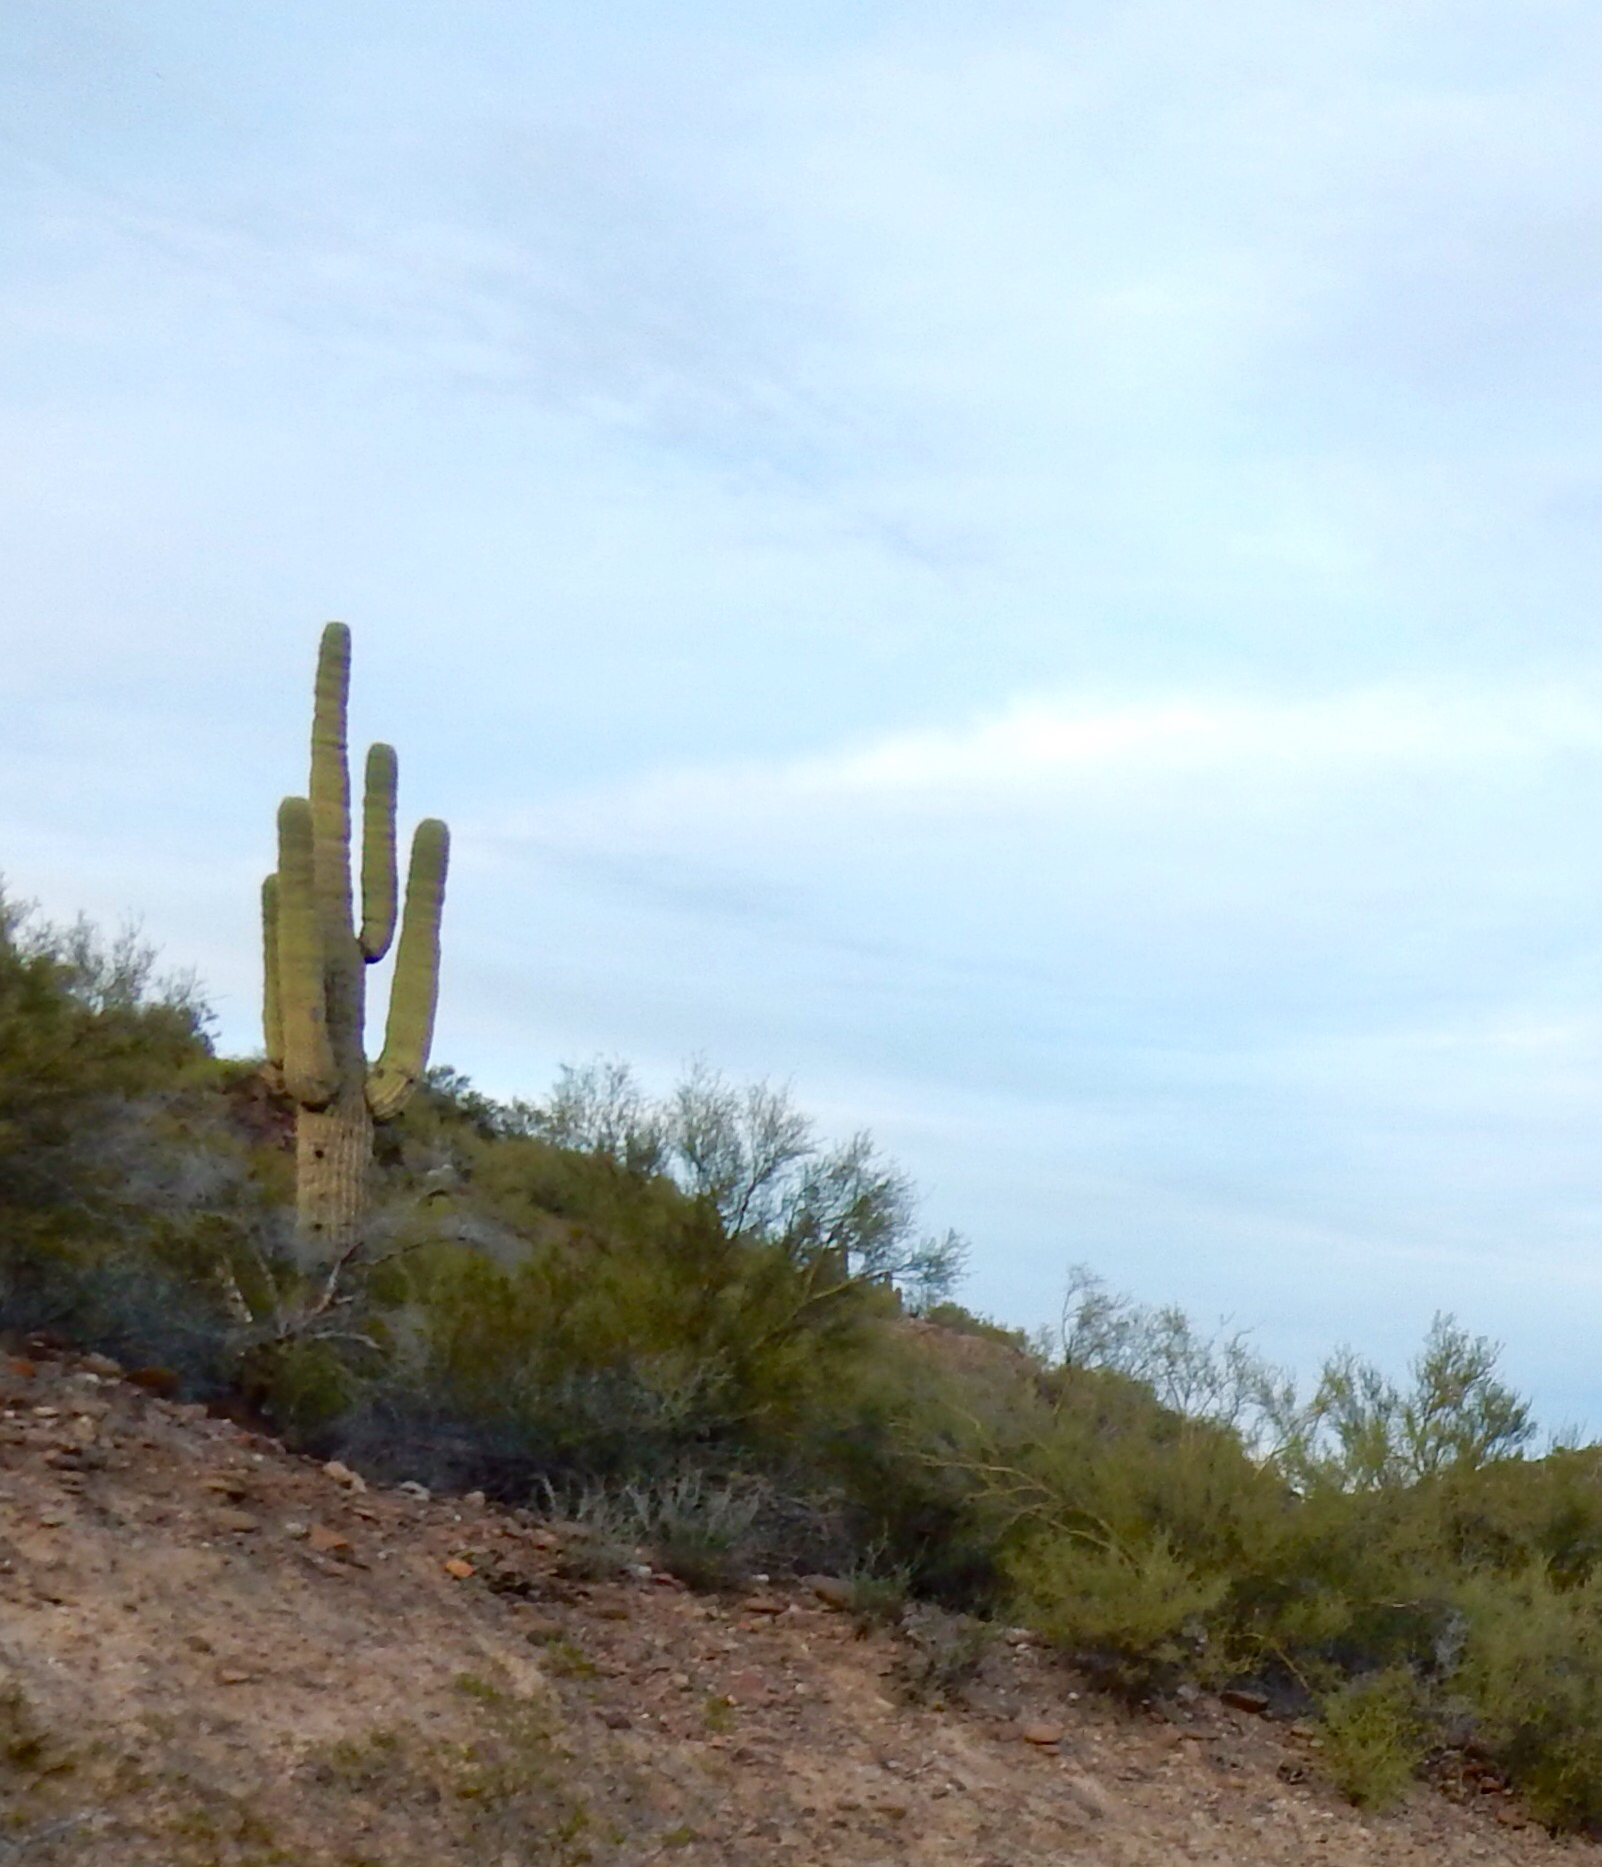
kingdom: Plantae
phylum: Tracheophyta
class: Magnoliopsida
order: Caryophyllales
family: Cactaceae
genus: Carnegiea
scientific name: Carnegiea gigantea
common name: Saguaro
